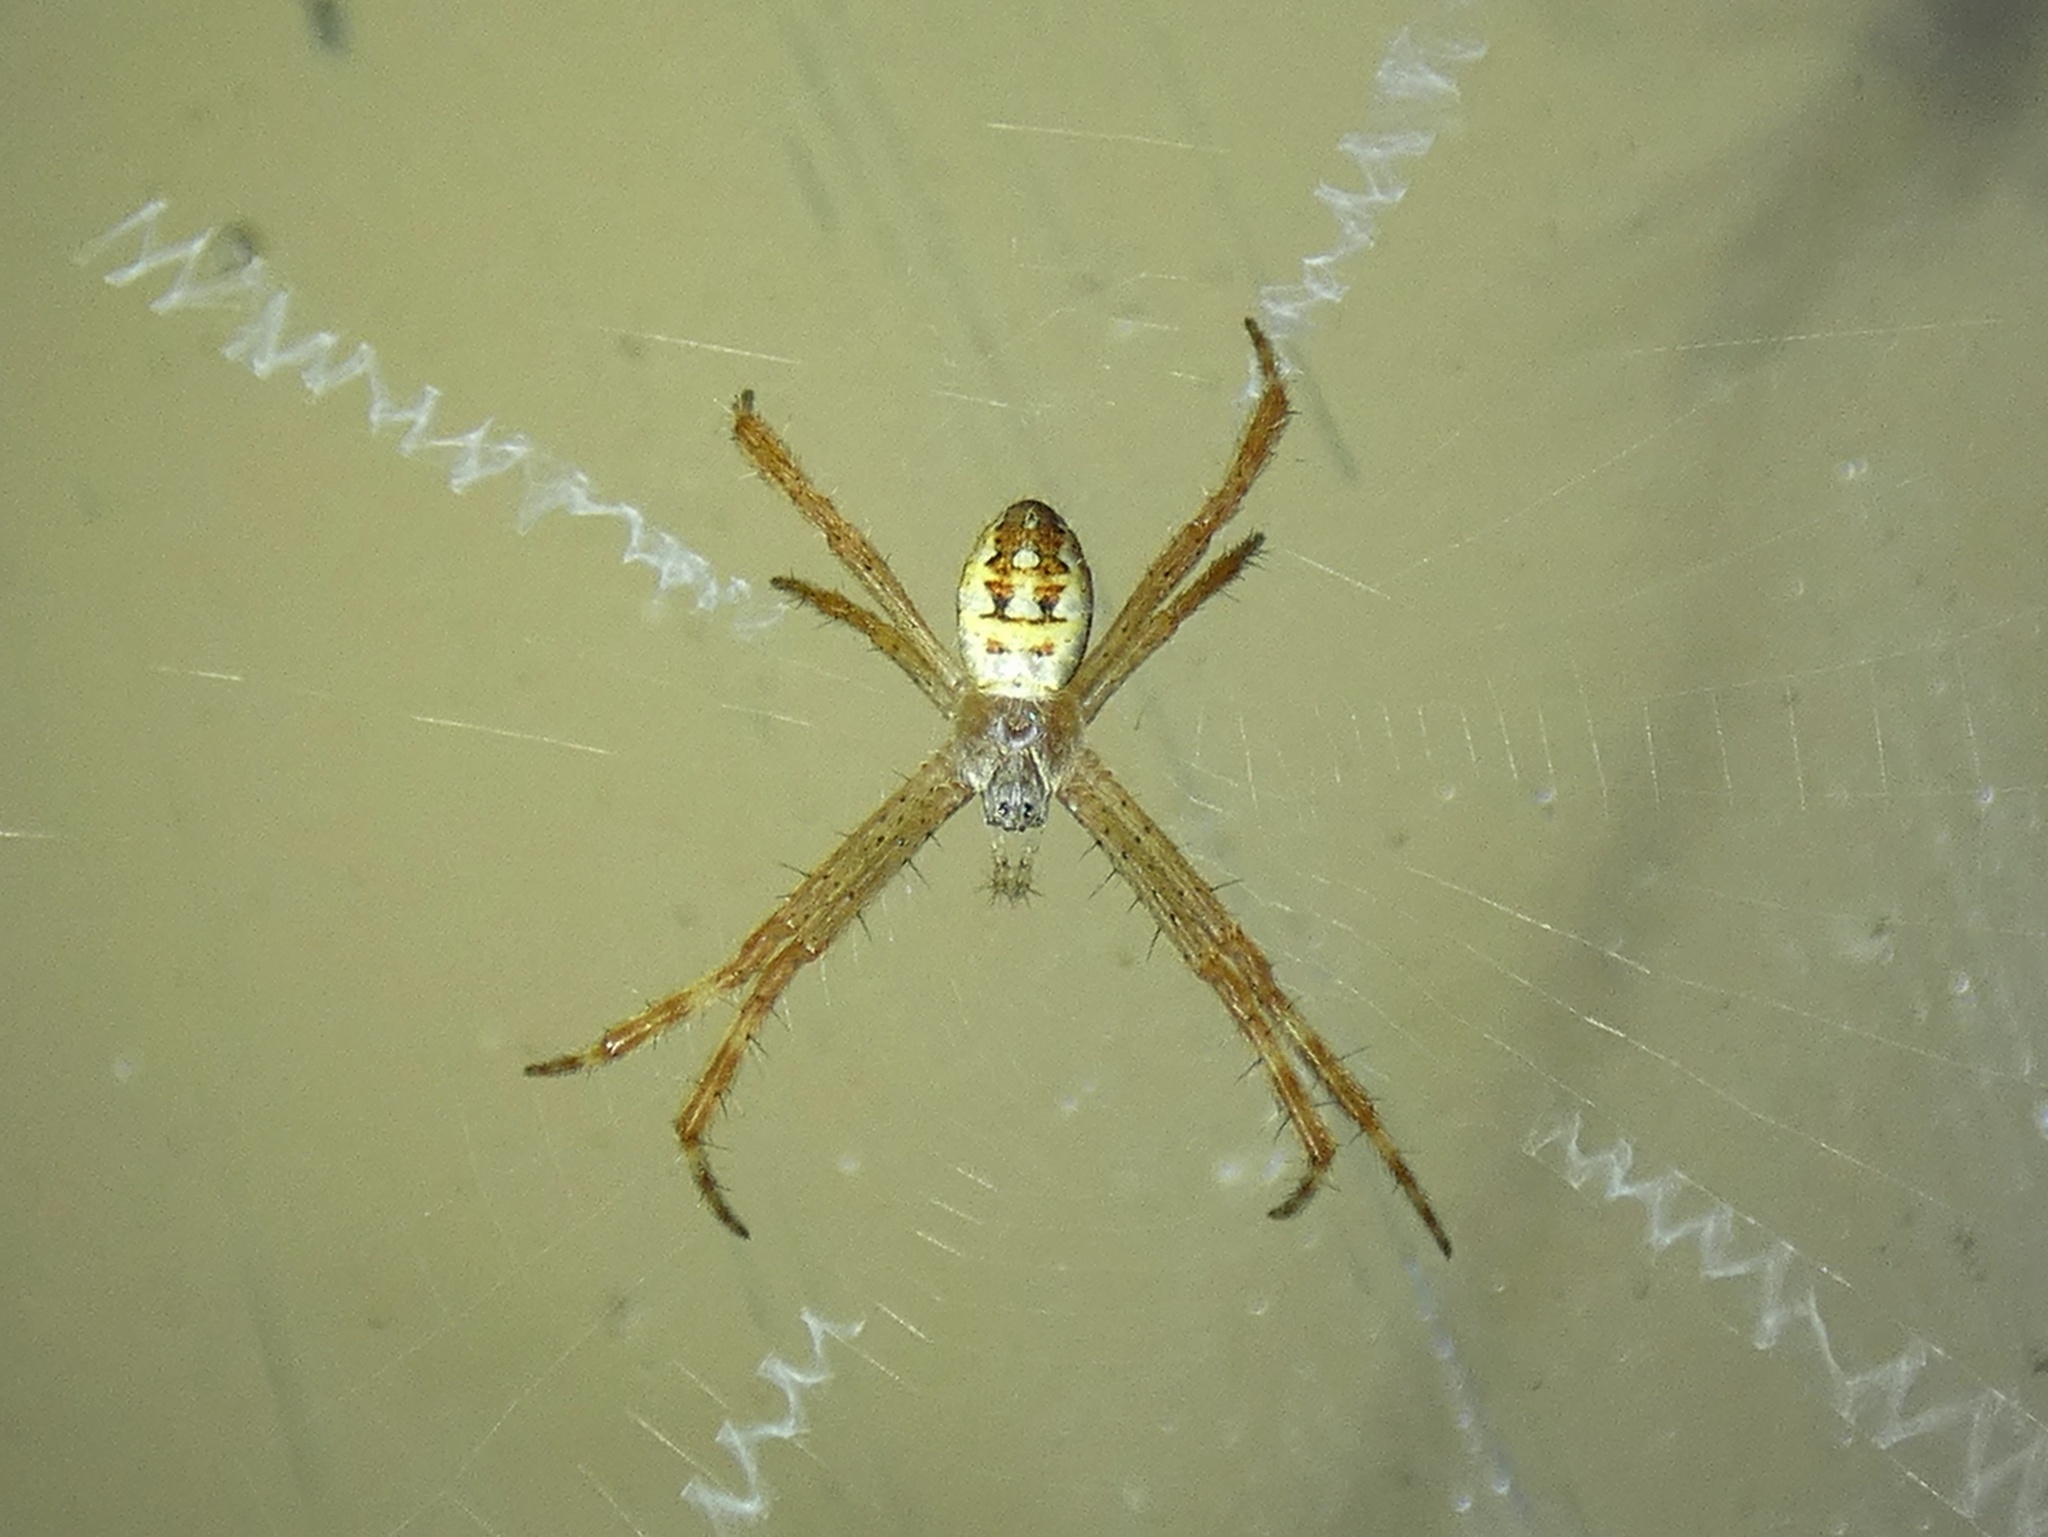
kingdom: Animalia
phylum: Arthropoda
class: Arachnida
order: Araneae
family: Araneidae
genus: Argiope
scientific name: Argiope picta
